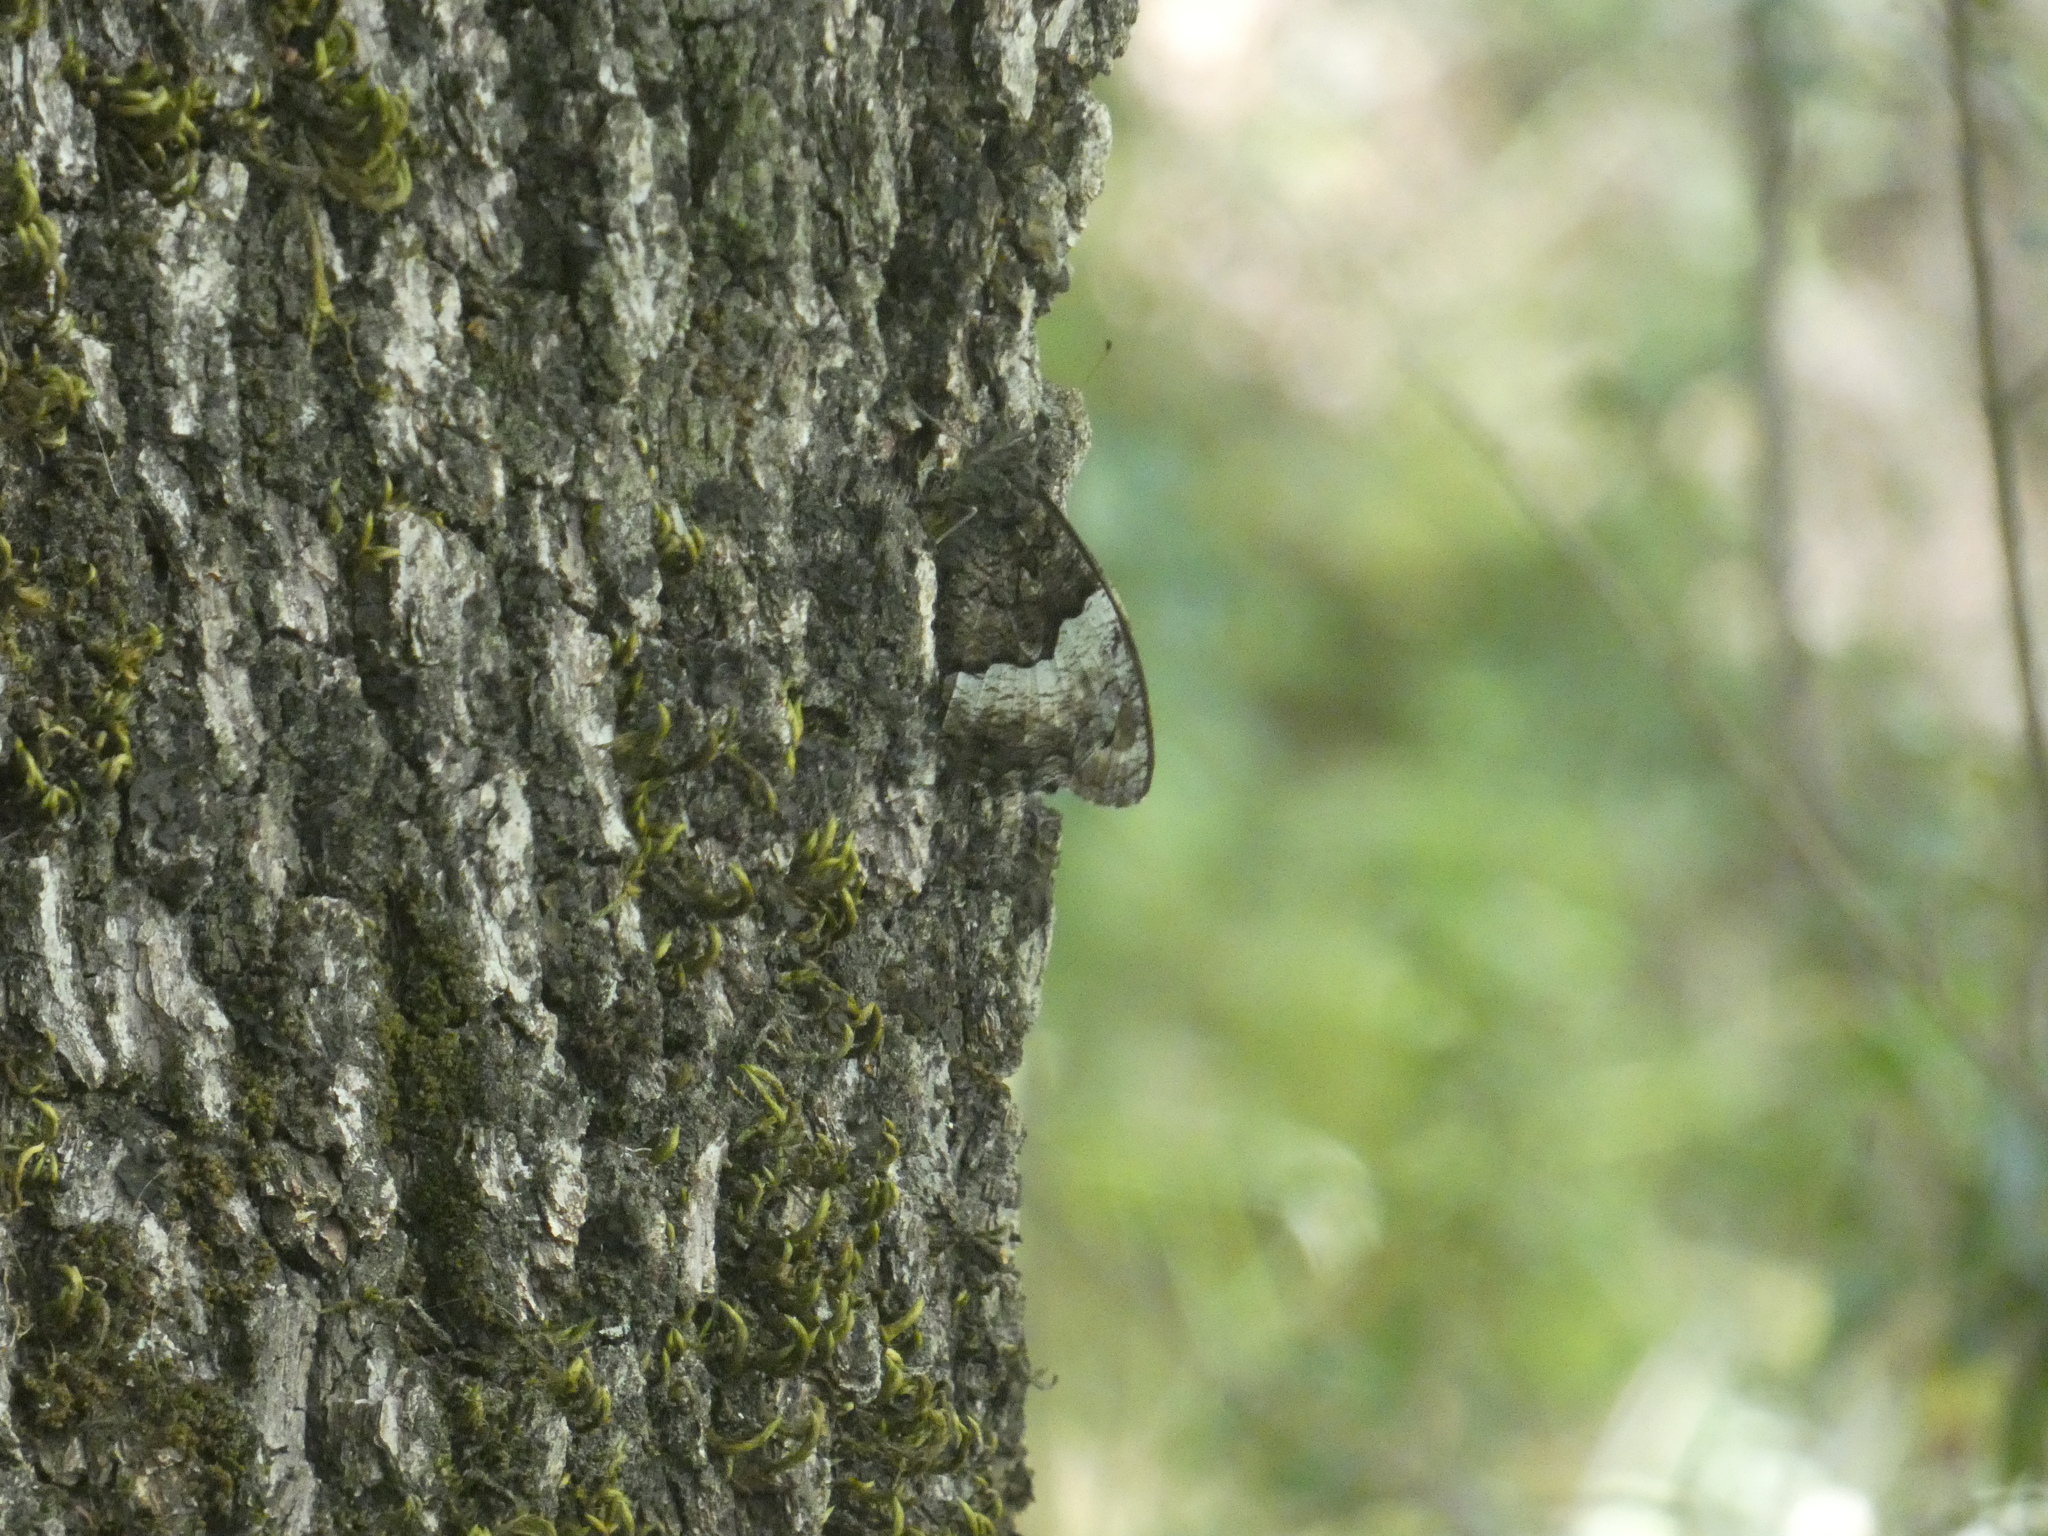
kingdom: Animalia
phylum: Arthropoda
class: Insecta
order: Lepidoptera
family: Nymphalidae
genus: Hipparchia
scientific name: Hipparchia fagi
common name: Woodland grayling
